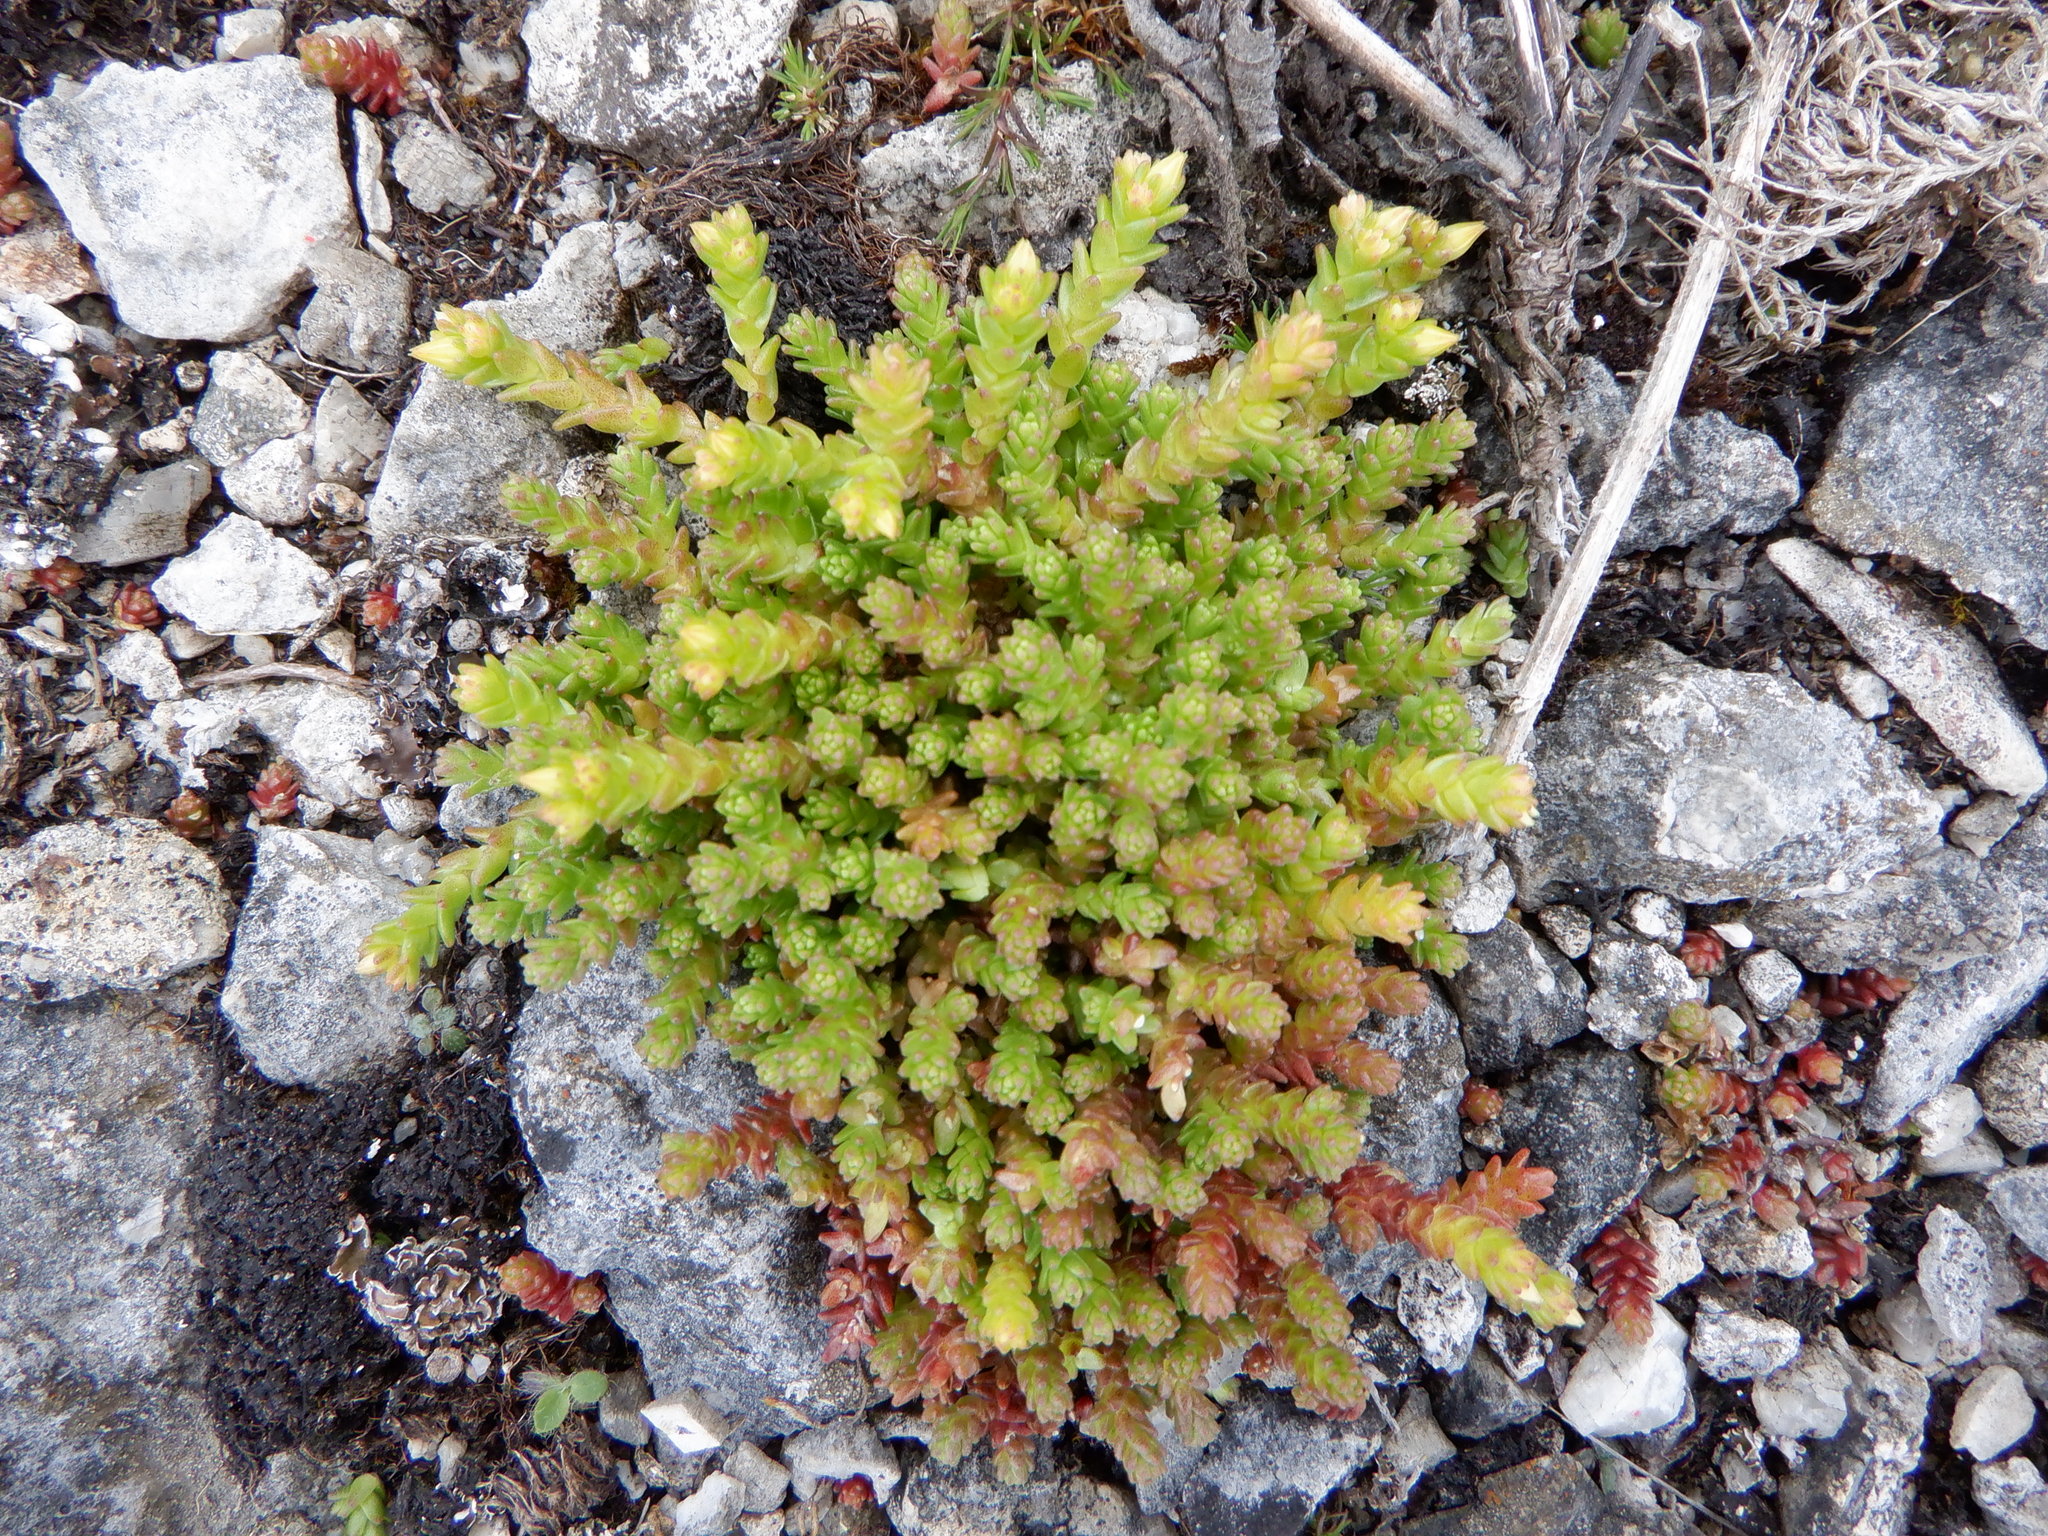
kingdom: Plantae
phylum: Tracheophyta
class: Magnoliopsida
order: Saxifragales
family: Crassulaceae
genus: Sedum
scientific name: Sedum acre
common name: Biting stonecrop
